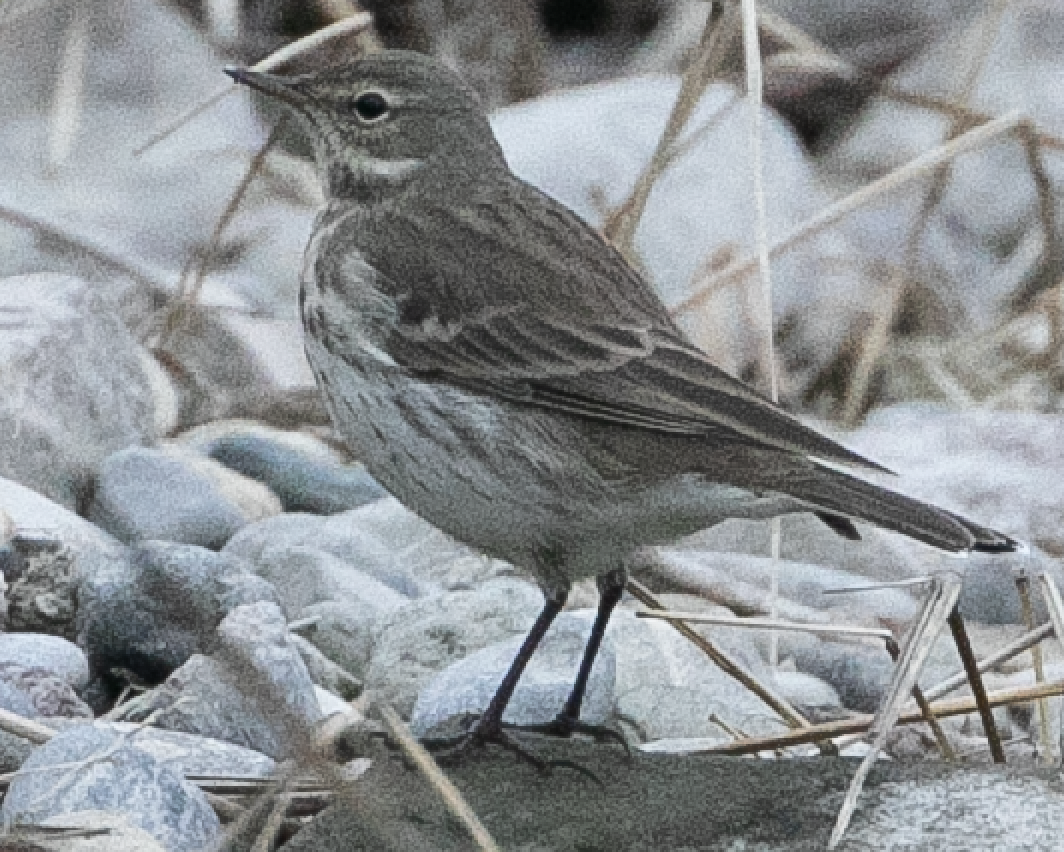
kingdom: Animalia
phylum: Chordata
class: Aves
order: Passeriformes
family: Motacillidae
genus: Anthus
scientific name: Anthus spinoletta
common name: Water pipit
